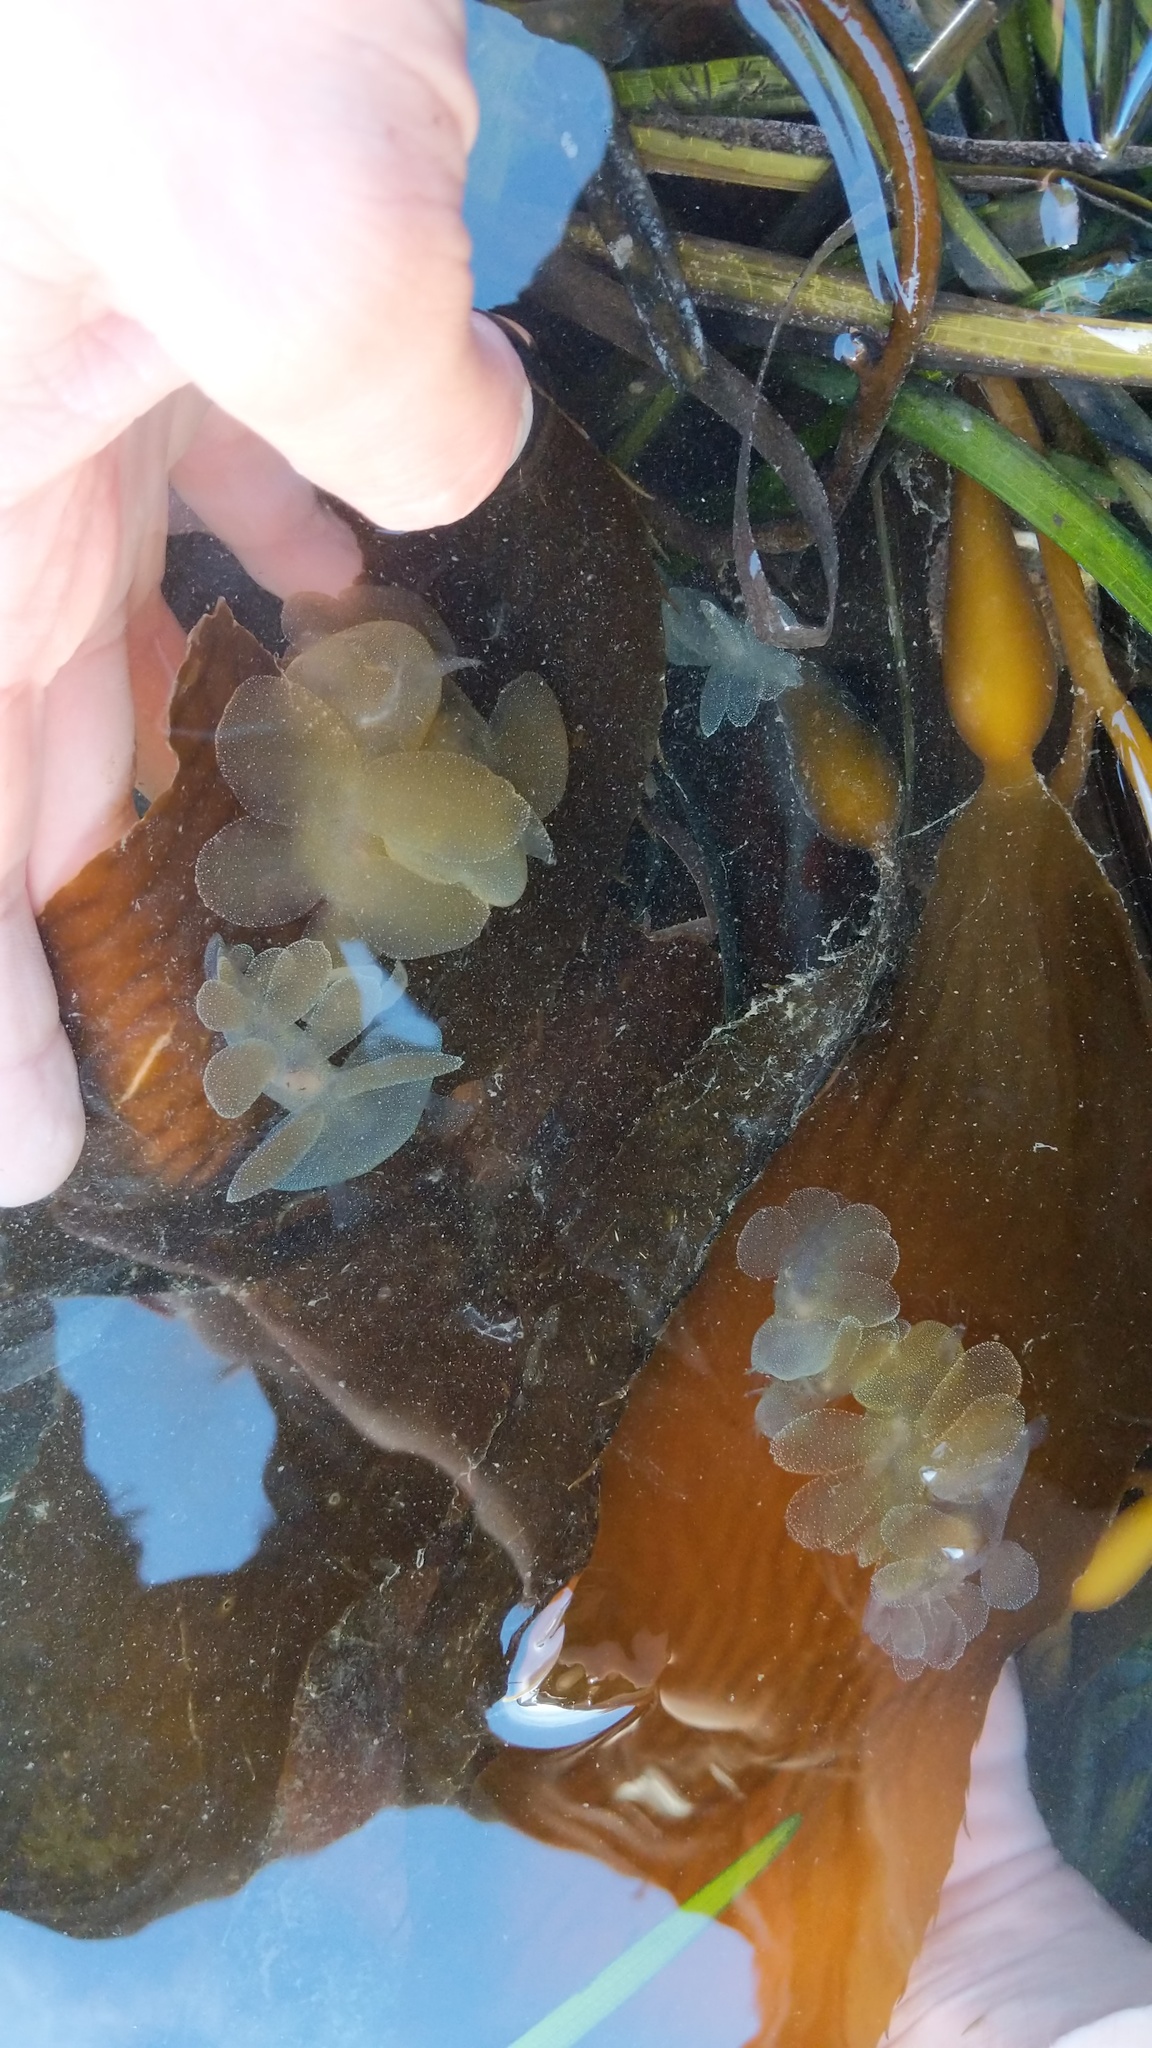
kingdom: Animalia
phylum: Mollusca
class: Gastropoda
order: Nudibranchia
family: Tethydidae
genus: Melibe
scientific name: Melibe leonina
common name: Lion nudibranch
